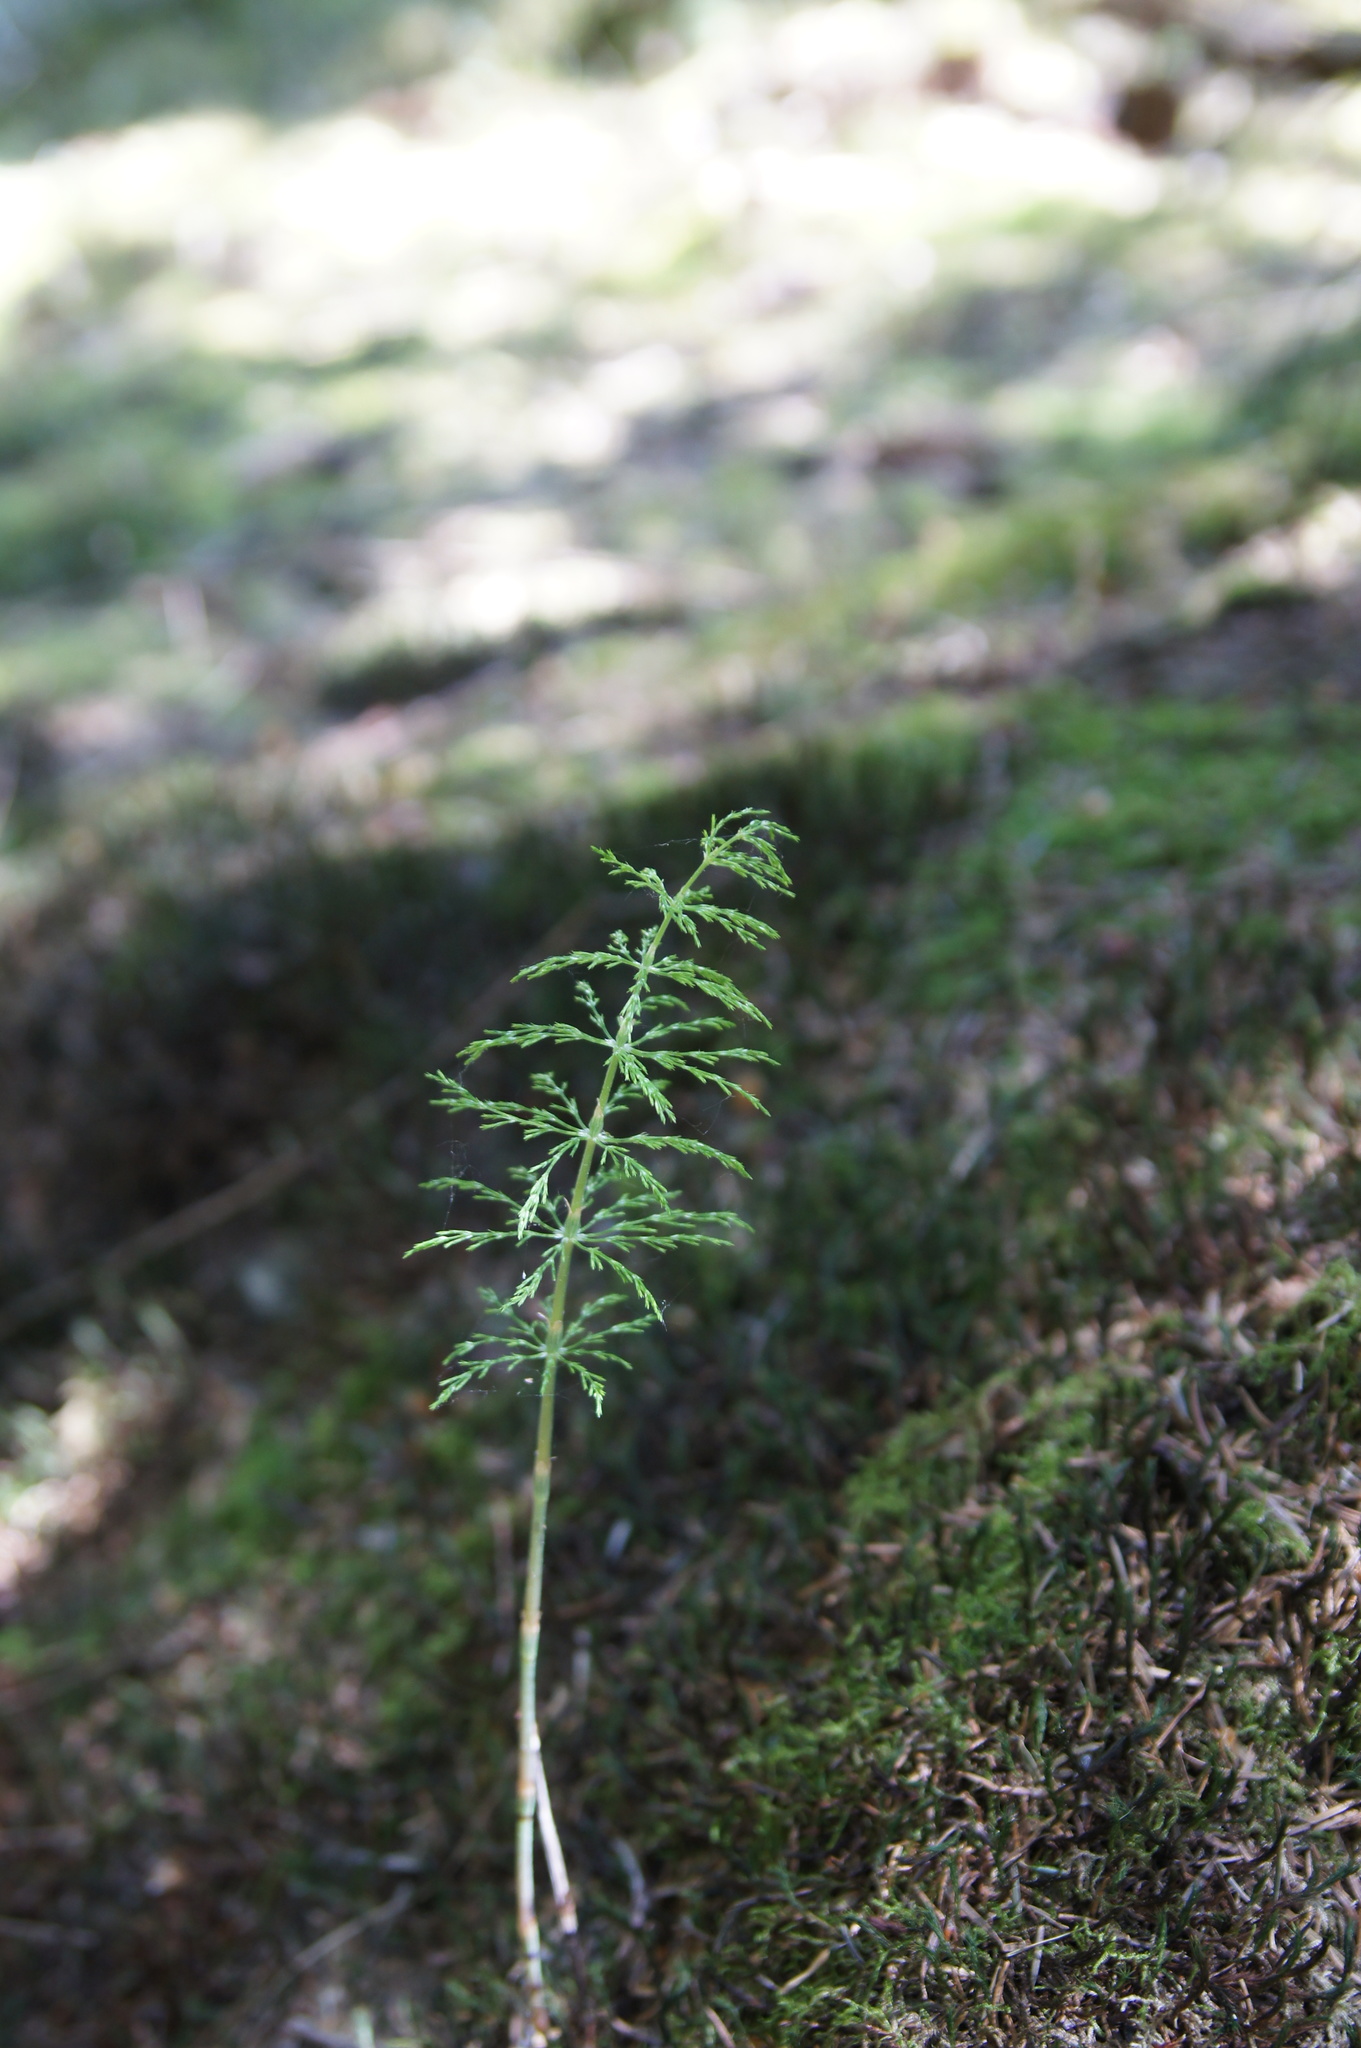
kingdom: Plantae
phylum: Tracheophyta
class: Polypodiopsida
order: Equisetales
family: Equisetaceae
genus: Equisetum
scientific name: Equisetum sylvaticum
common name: Wood horsetail
